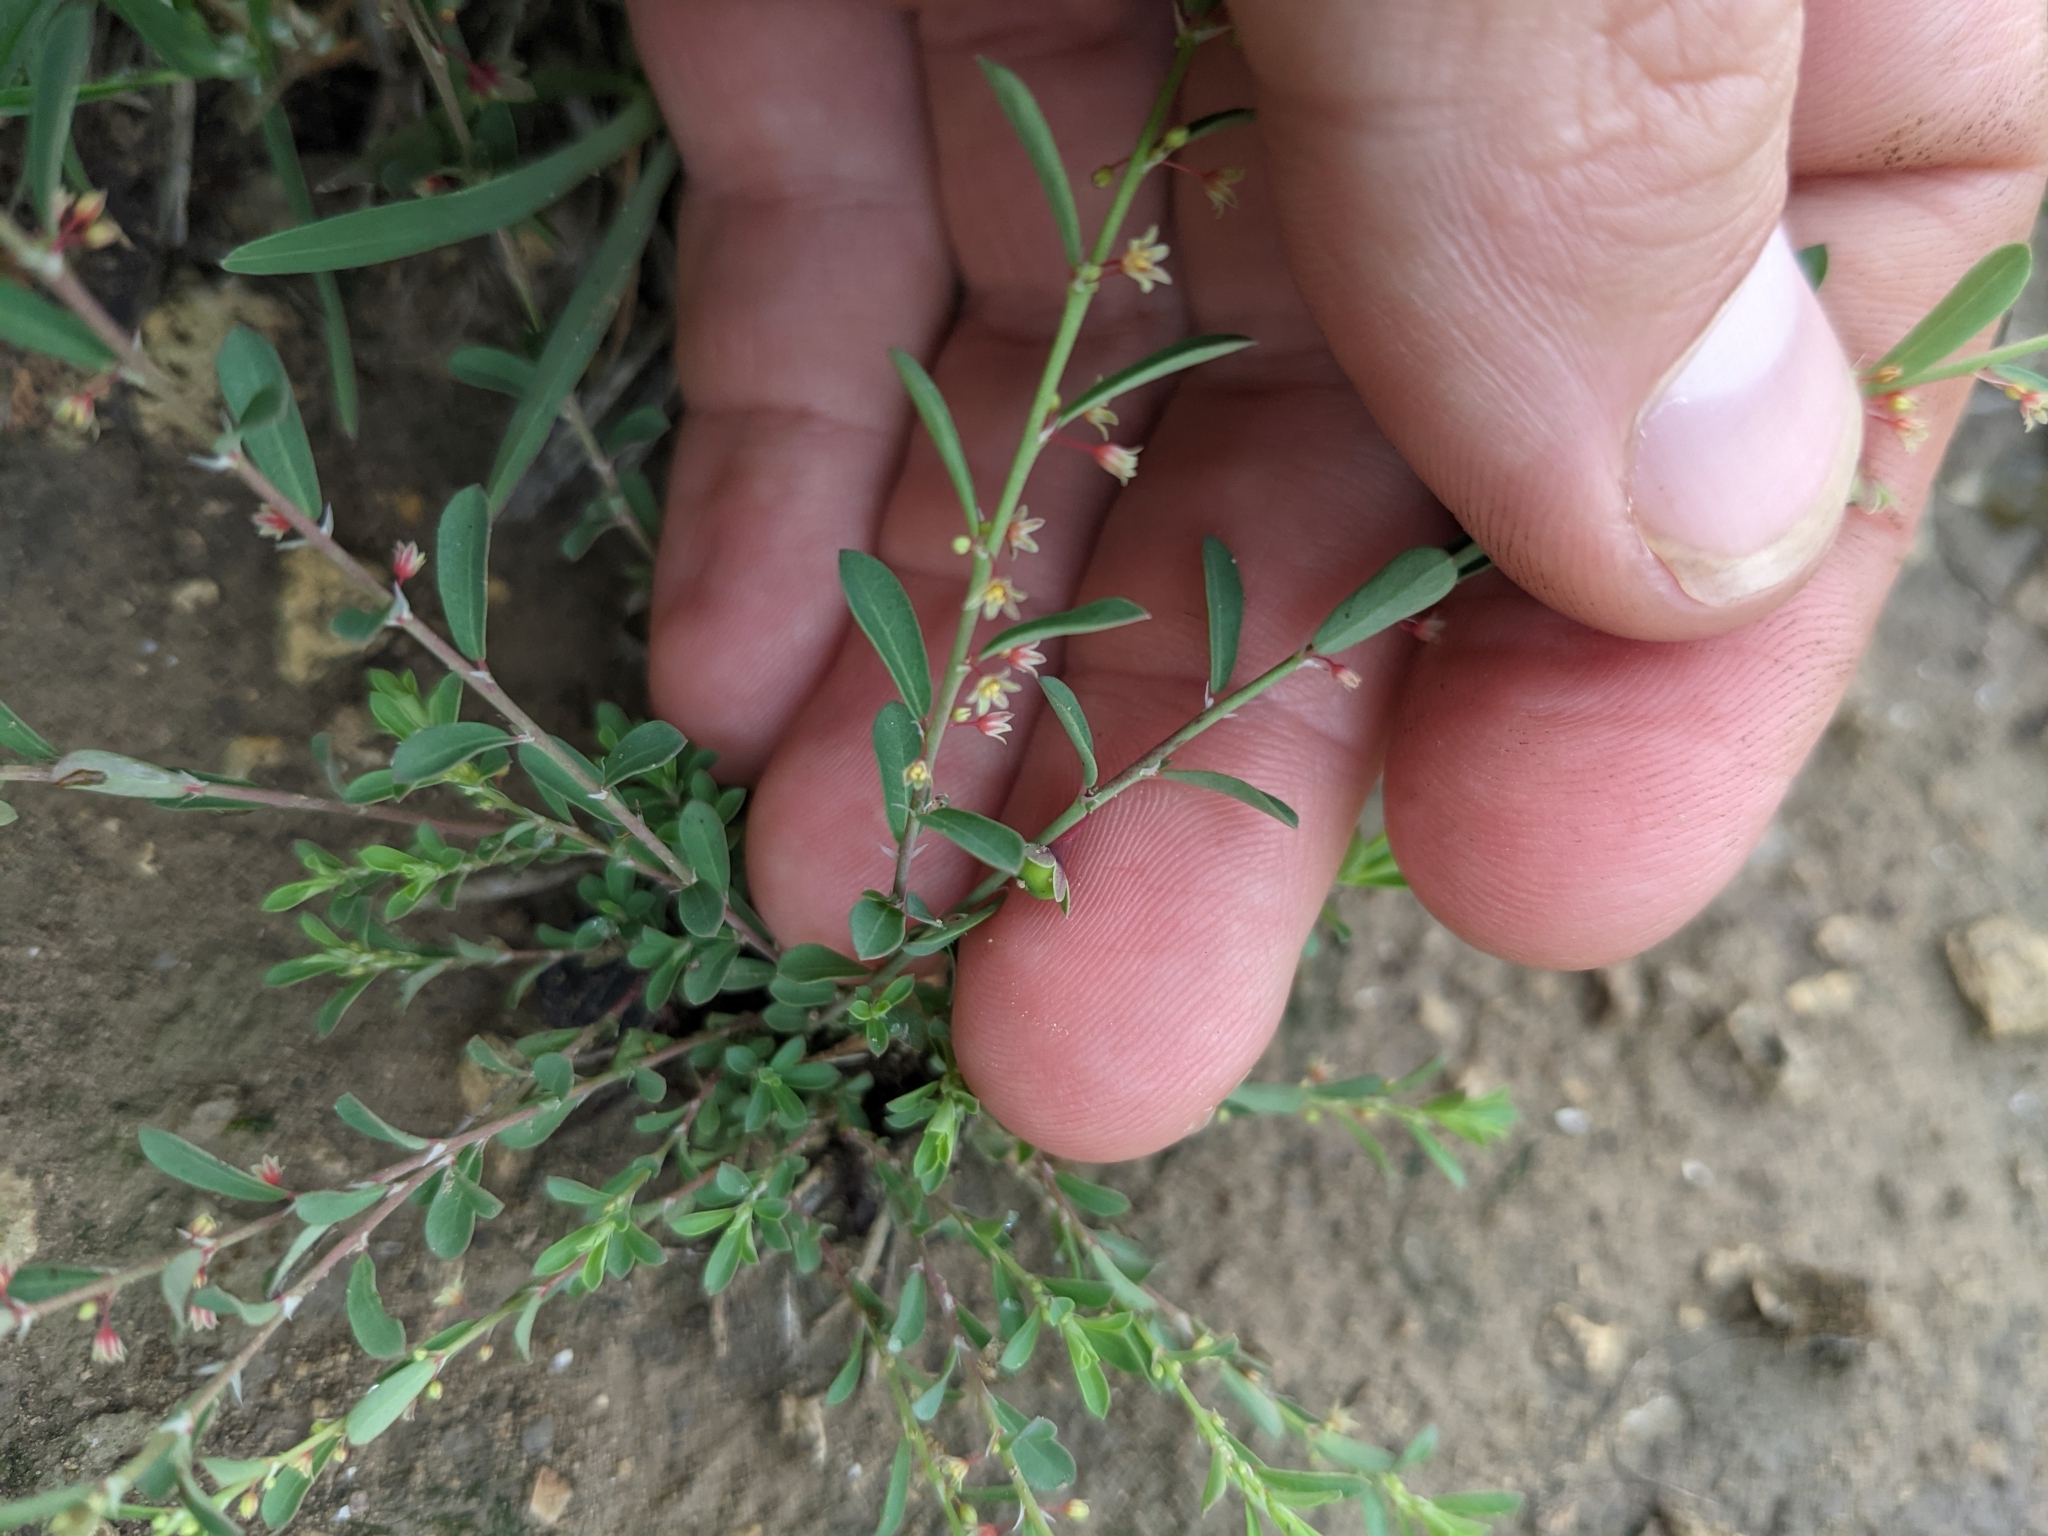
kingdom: Plantae
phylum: Tracheophyta
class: Magnoliopsida
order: Malpighiales
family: Phyllanthaceae
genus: Phyllanthus
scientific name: Phyllanthus polygonoides
